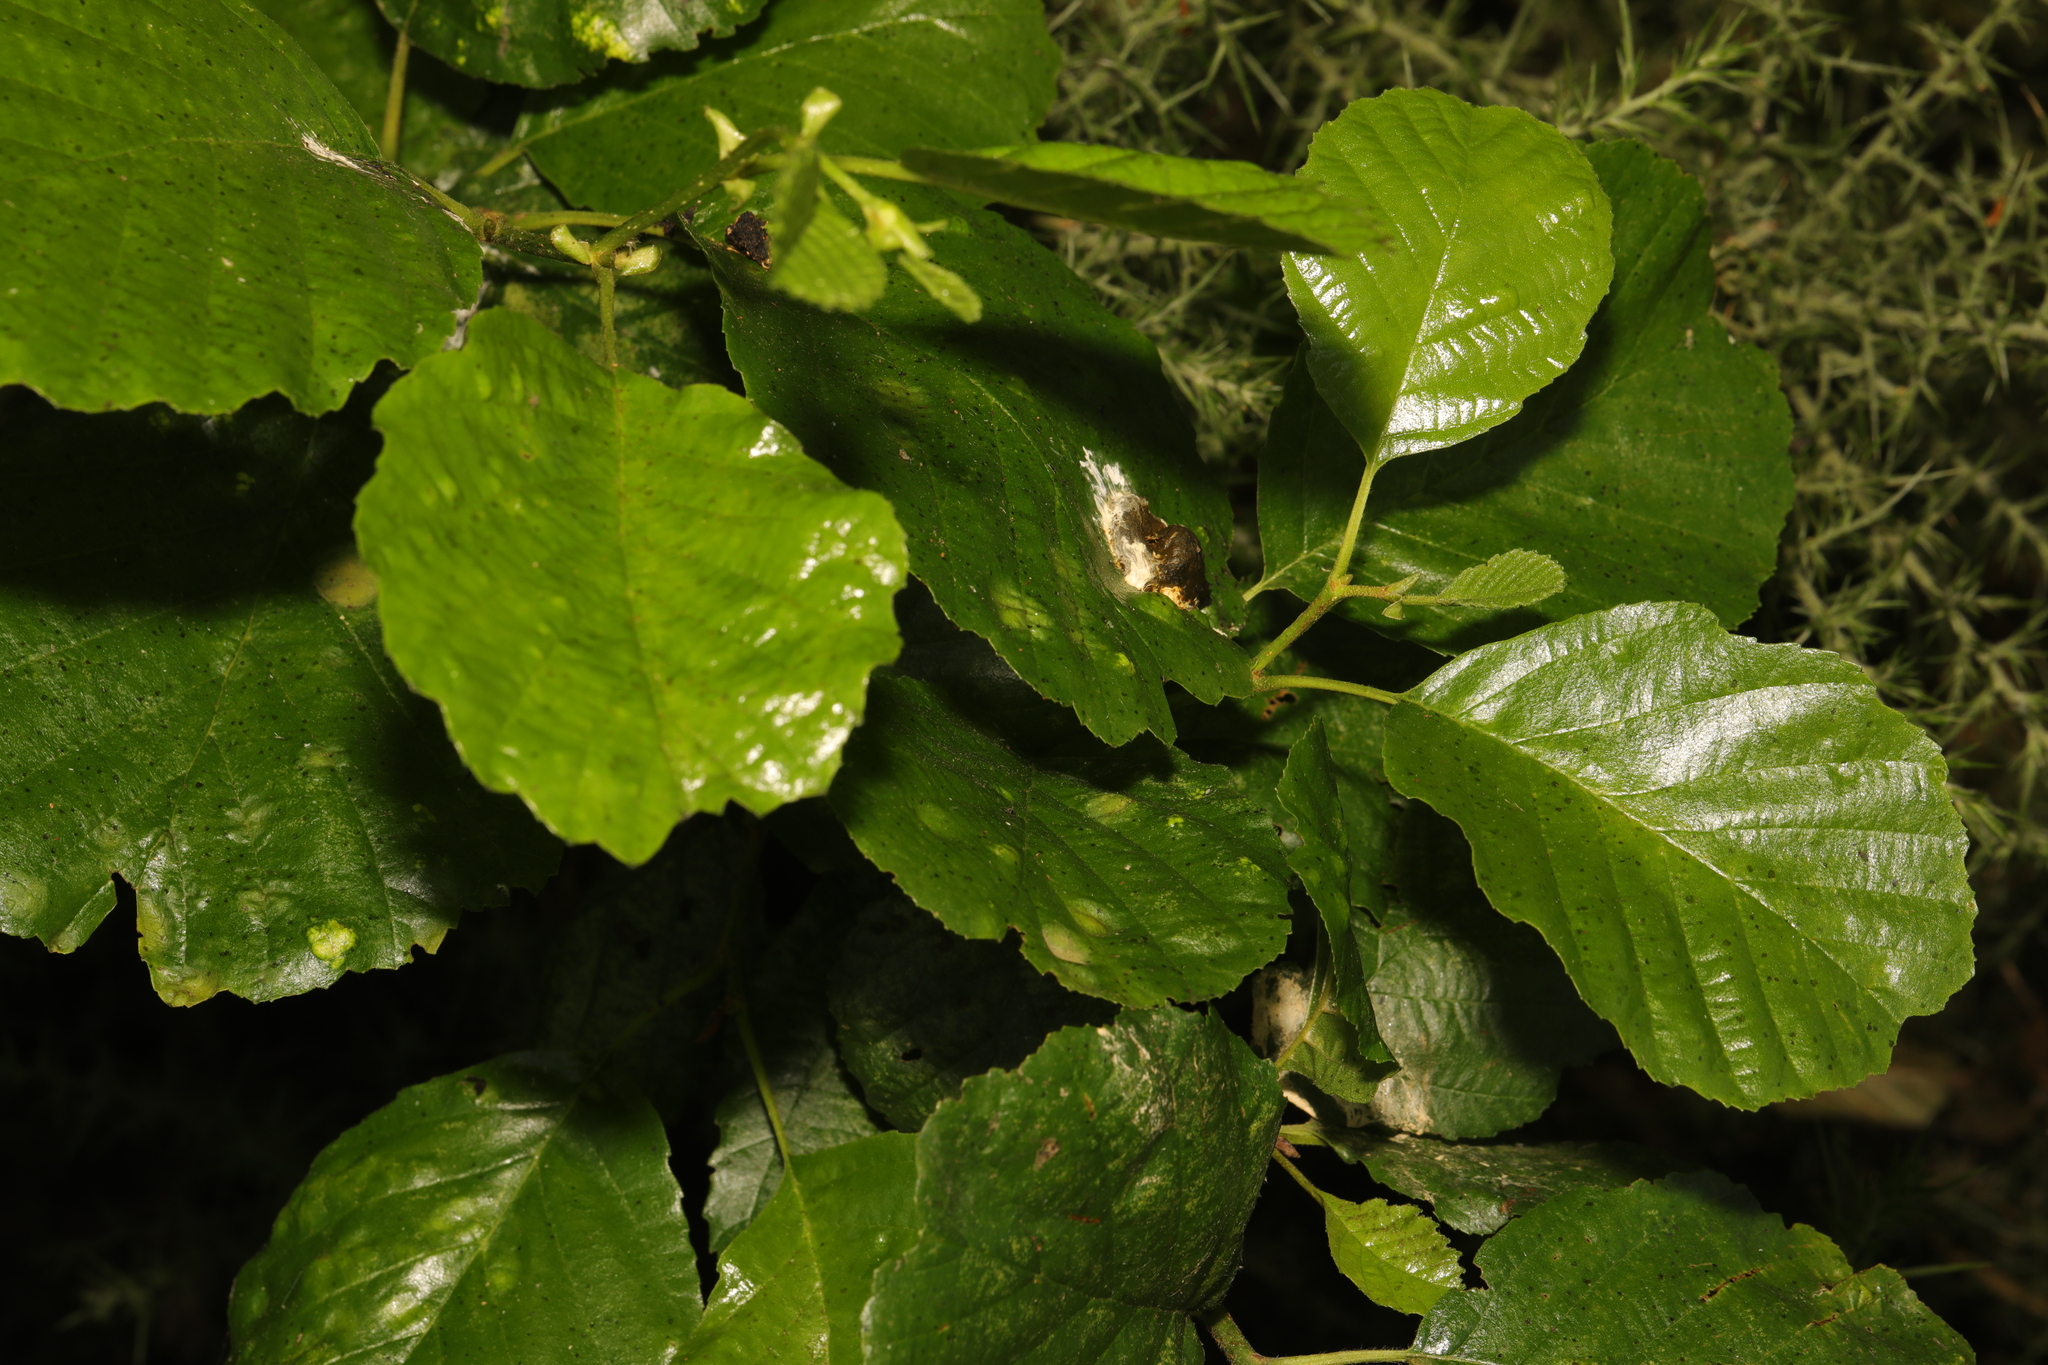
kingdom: Plantae
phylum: Tracheophyta
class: Magnoliopsida
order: Fagales
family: Betulaceae
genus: Alnus
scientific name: Alnus glutinosa
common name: Black alder
